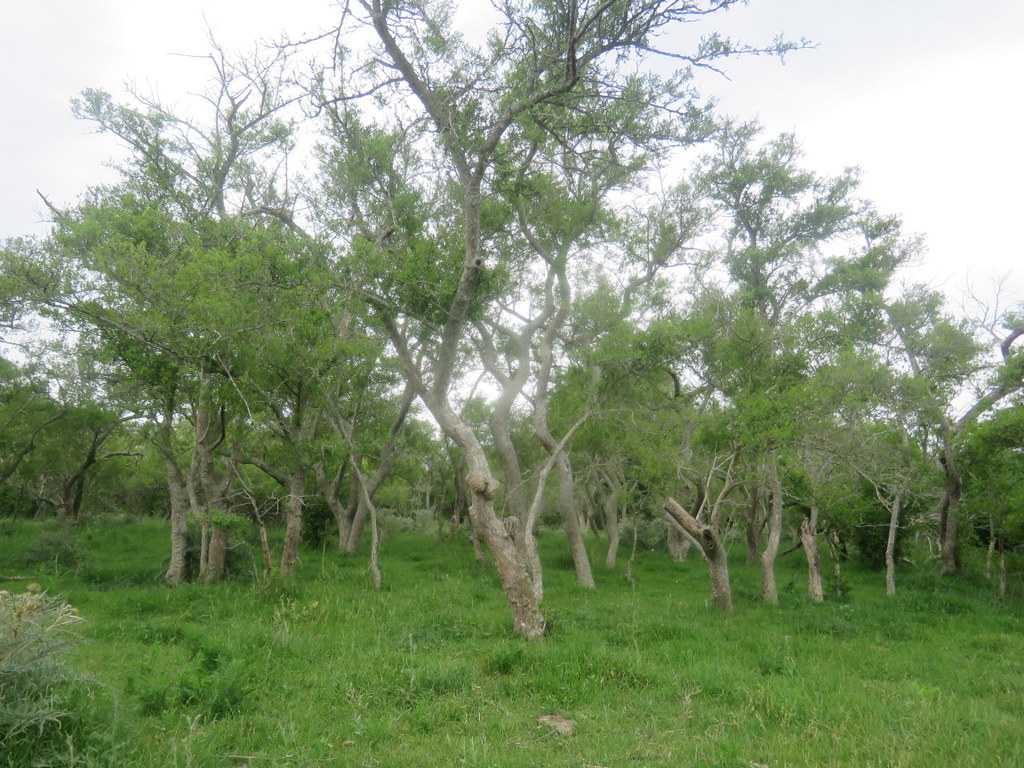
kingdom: Plantae
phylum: Tracheophyta
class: Magnoliopsida
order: Rosales
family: Cannabaceae
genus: Celtis
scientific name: Celtis tala
